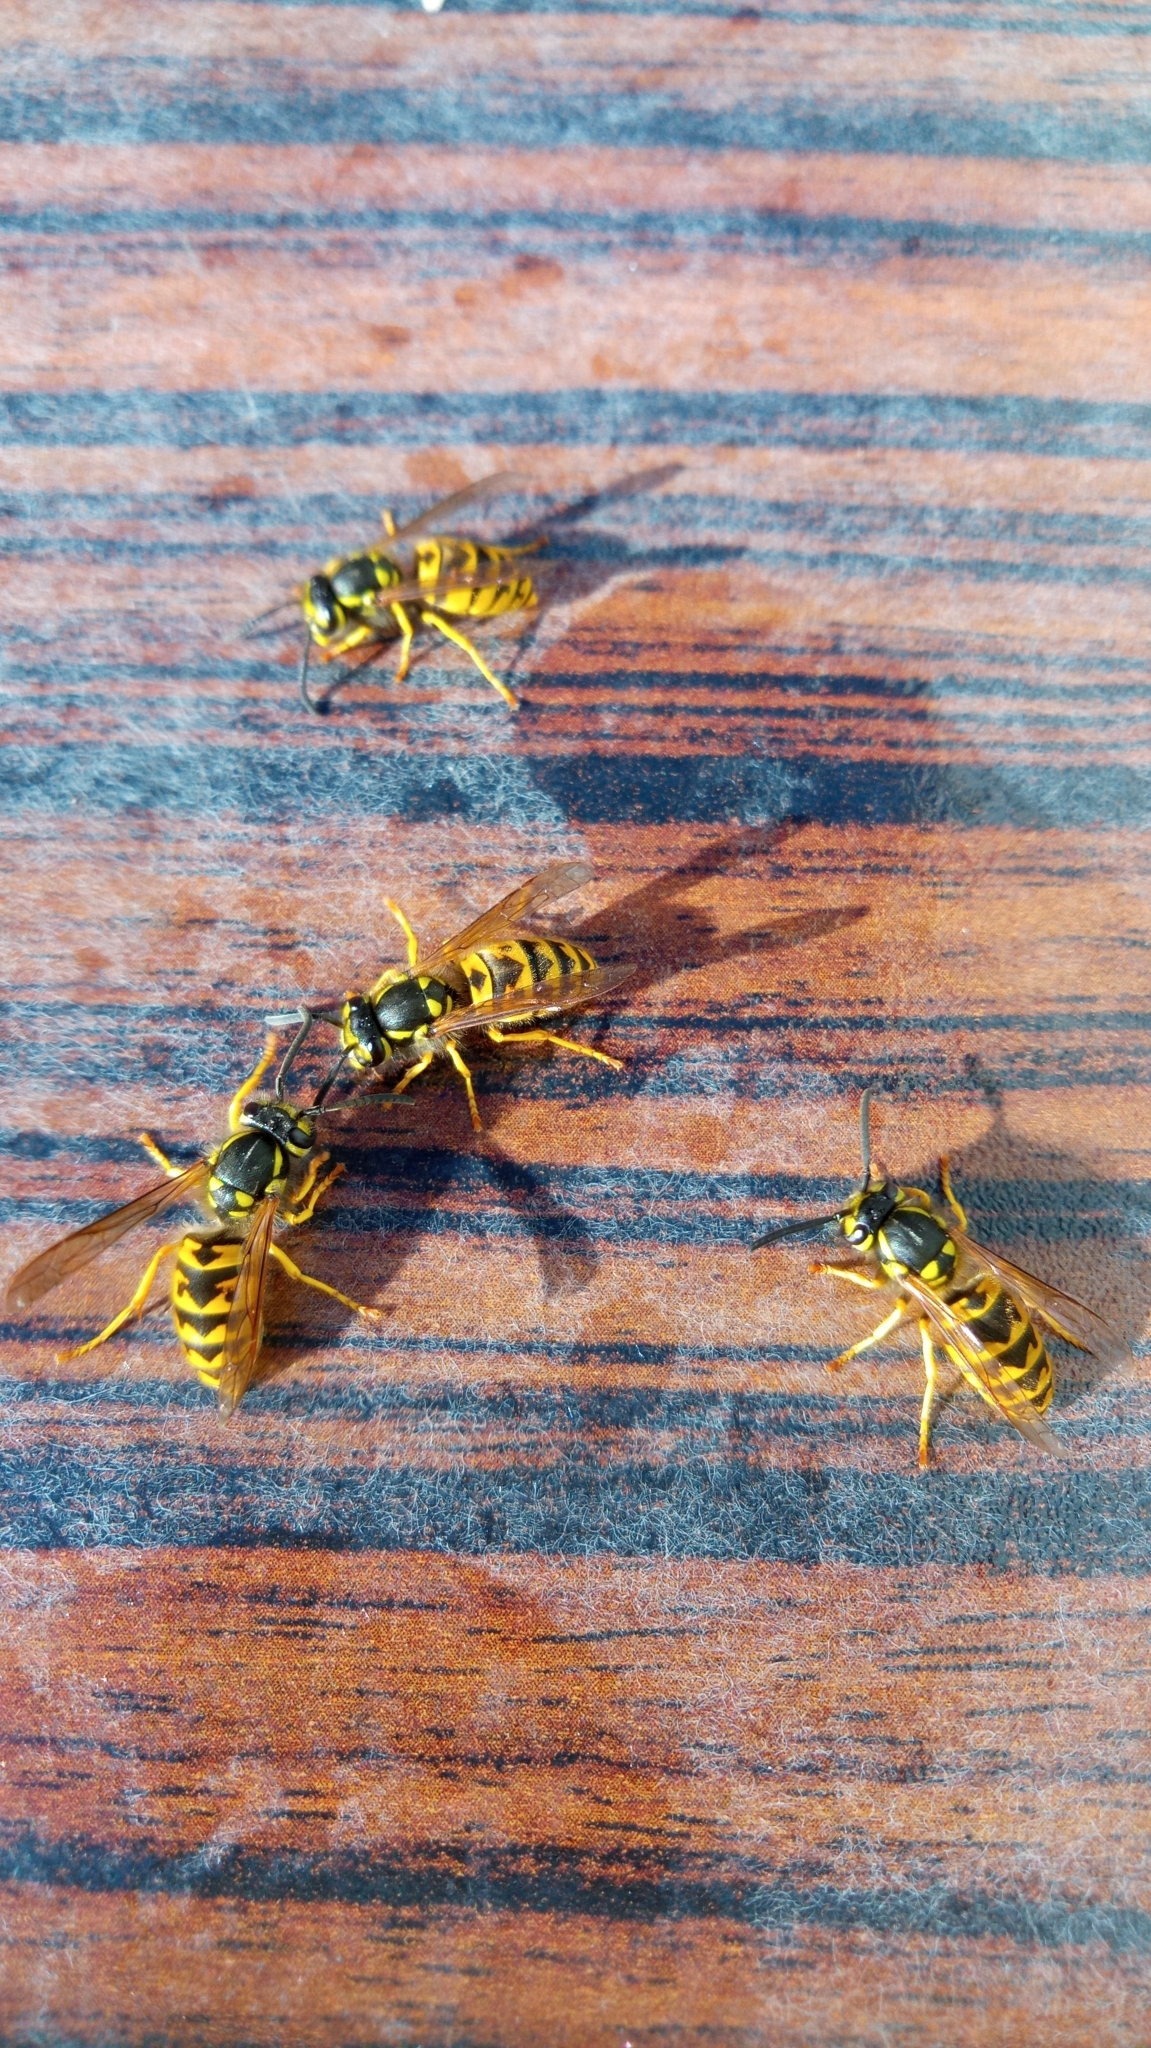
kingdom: Animalia
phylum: Arthropoda
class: Insecta
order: Hymenoptera
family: Vespidae
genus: Vespula
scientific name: Vespula germanica
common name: German wasp
